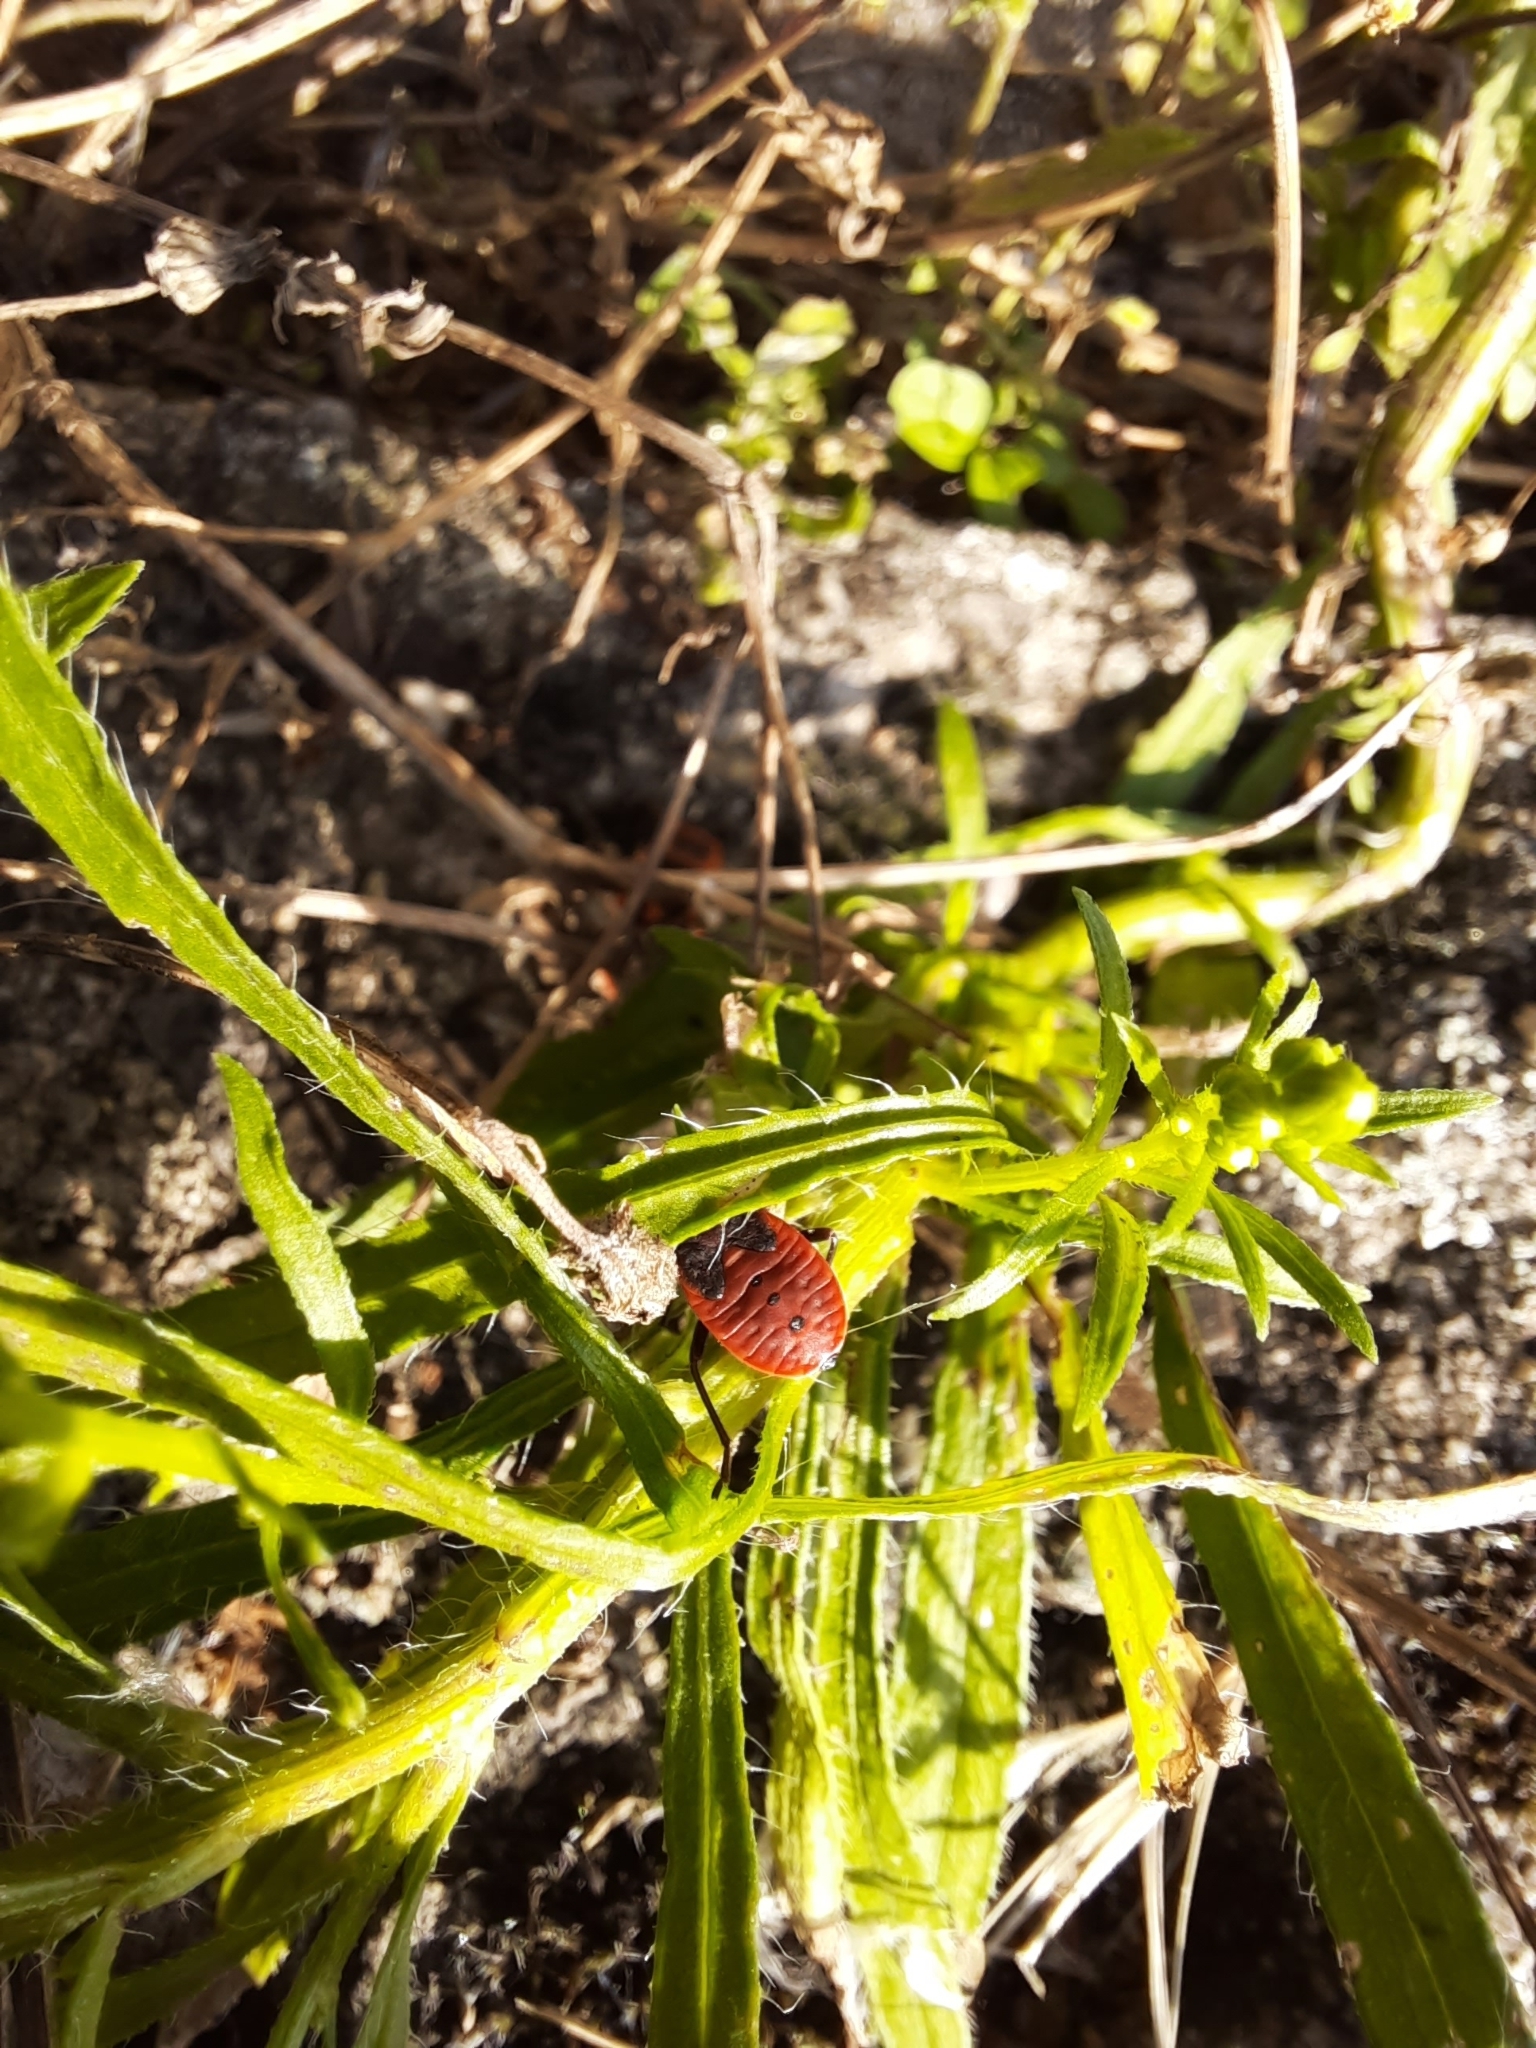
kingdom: Animalia
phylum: Arthropoda
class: Insecta
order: Hemiptera
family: Pyrrhocoridae
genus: Pyrrhocoris
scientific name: Pyrrhocoris apterus
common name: Firebug
